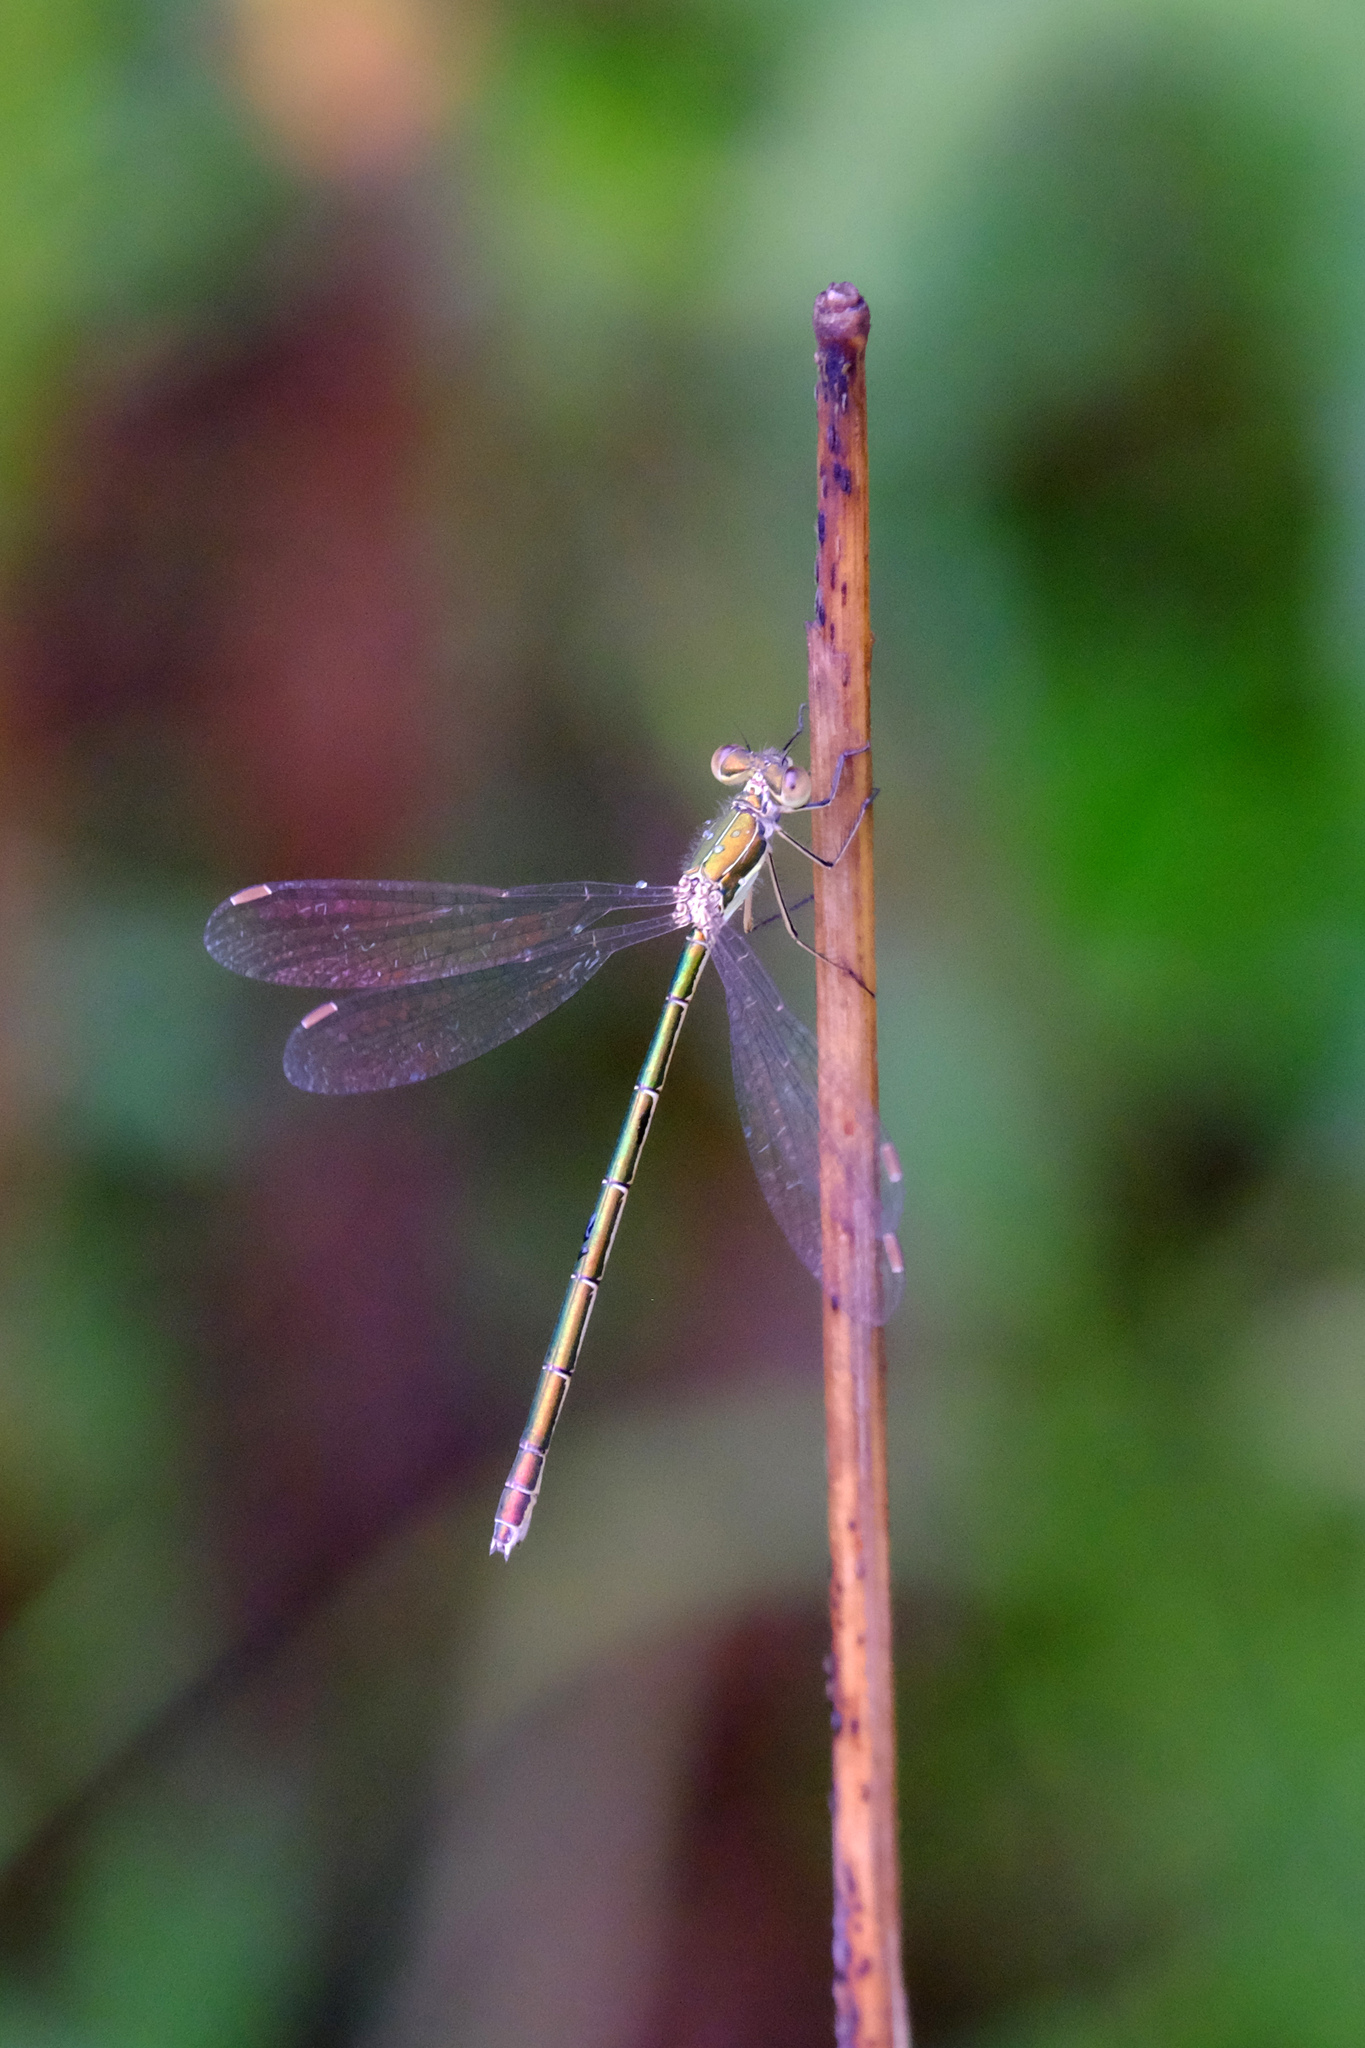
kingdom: Animalia
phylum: Arthropoda
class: Insecta
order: Odonata
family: Lestidae
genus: Lestes
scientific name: Lestes virens
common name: Small emerald spreadwing
